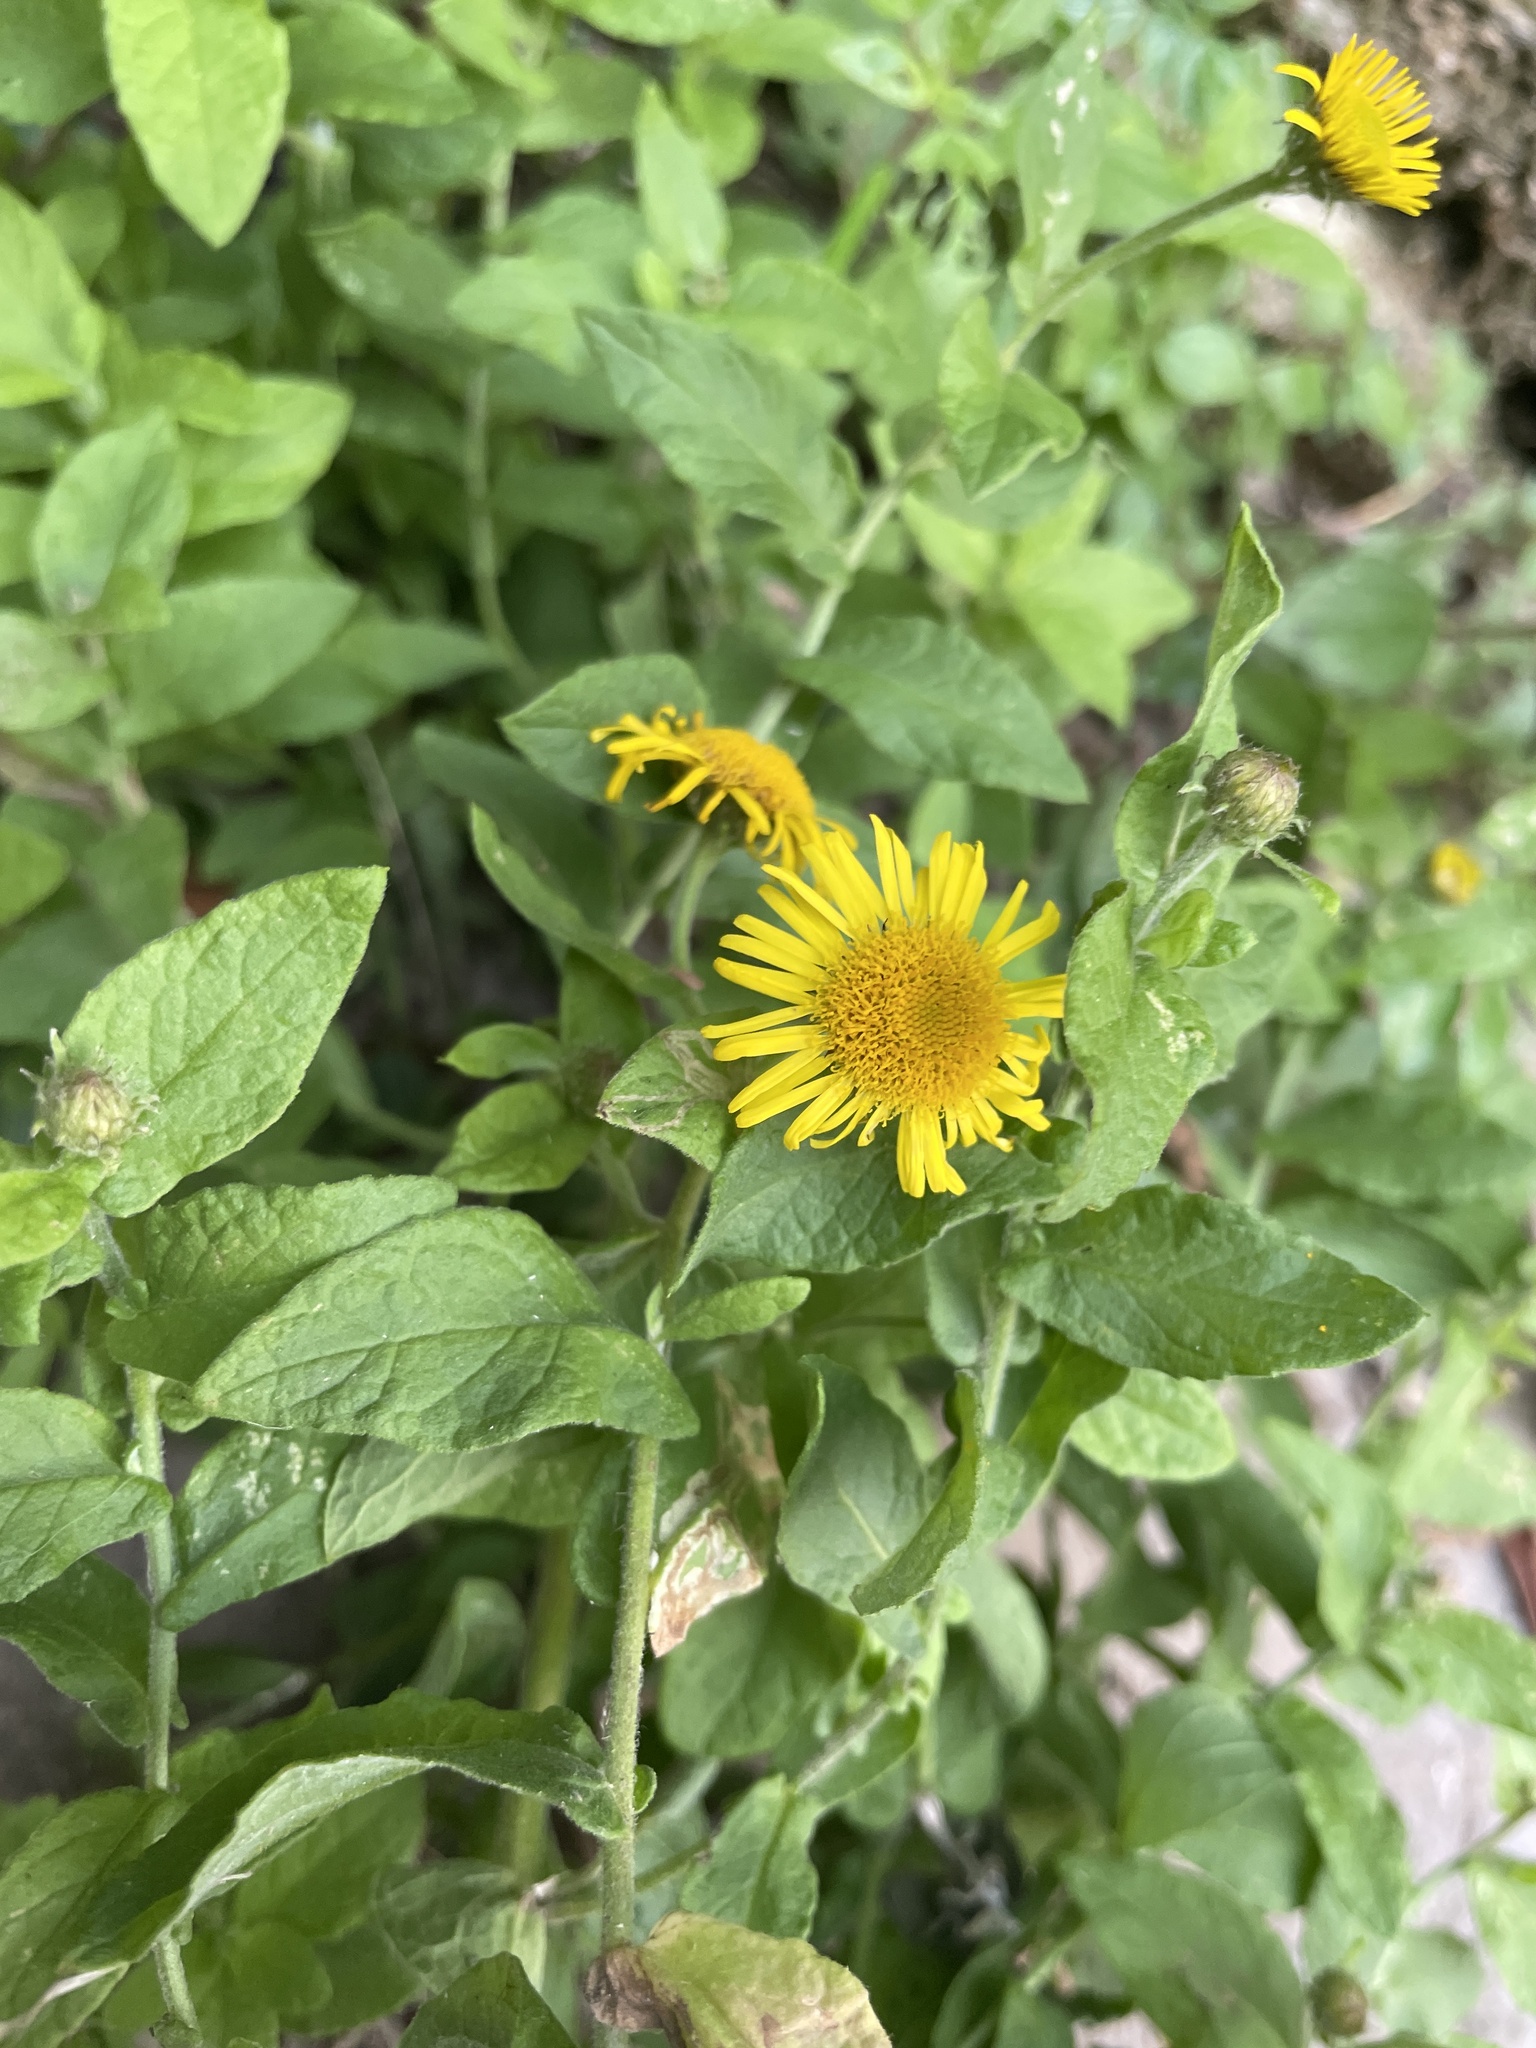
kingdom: Plantae
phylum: Tracheophyta
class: Magnoliopsida
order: Asterales
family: Asteraceae
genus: Pulicaria
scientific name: Pulicaria dysenterica
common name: Common fleabane
